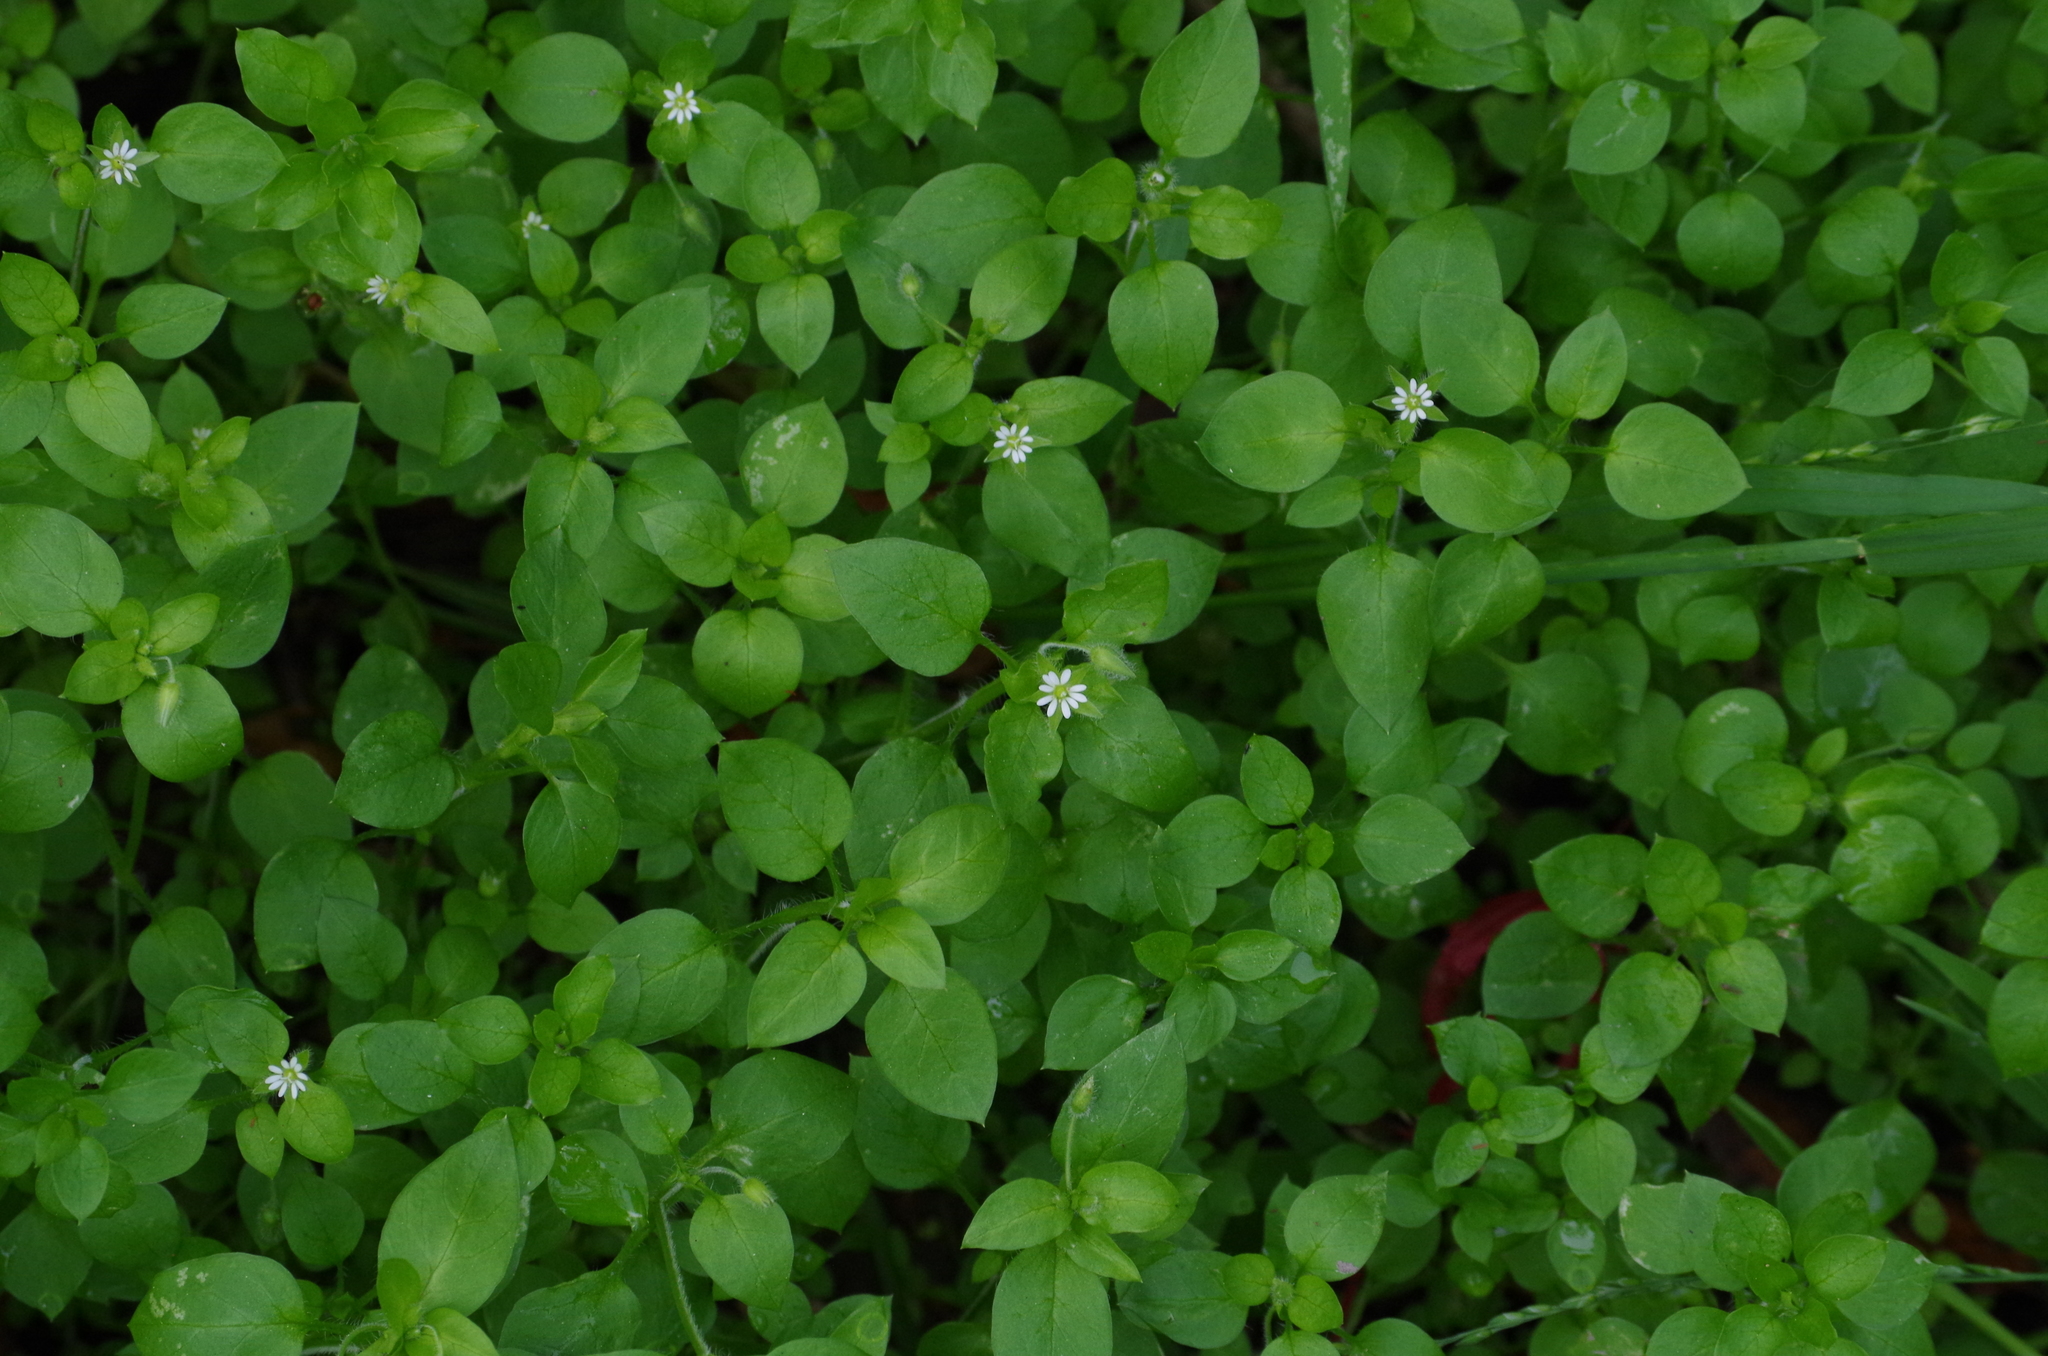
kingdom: Plantae
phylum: Tracheophyta
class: Magnoliopsida
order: Caryophyllales
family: Caryophyllaceae
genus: Stellaria
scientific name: Stellaria media
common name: Common chickweed
